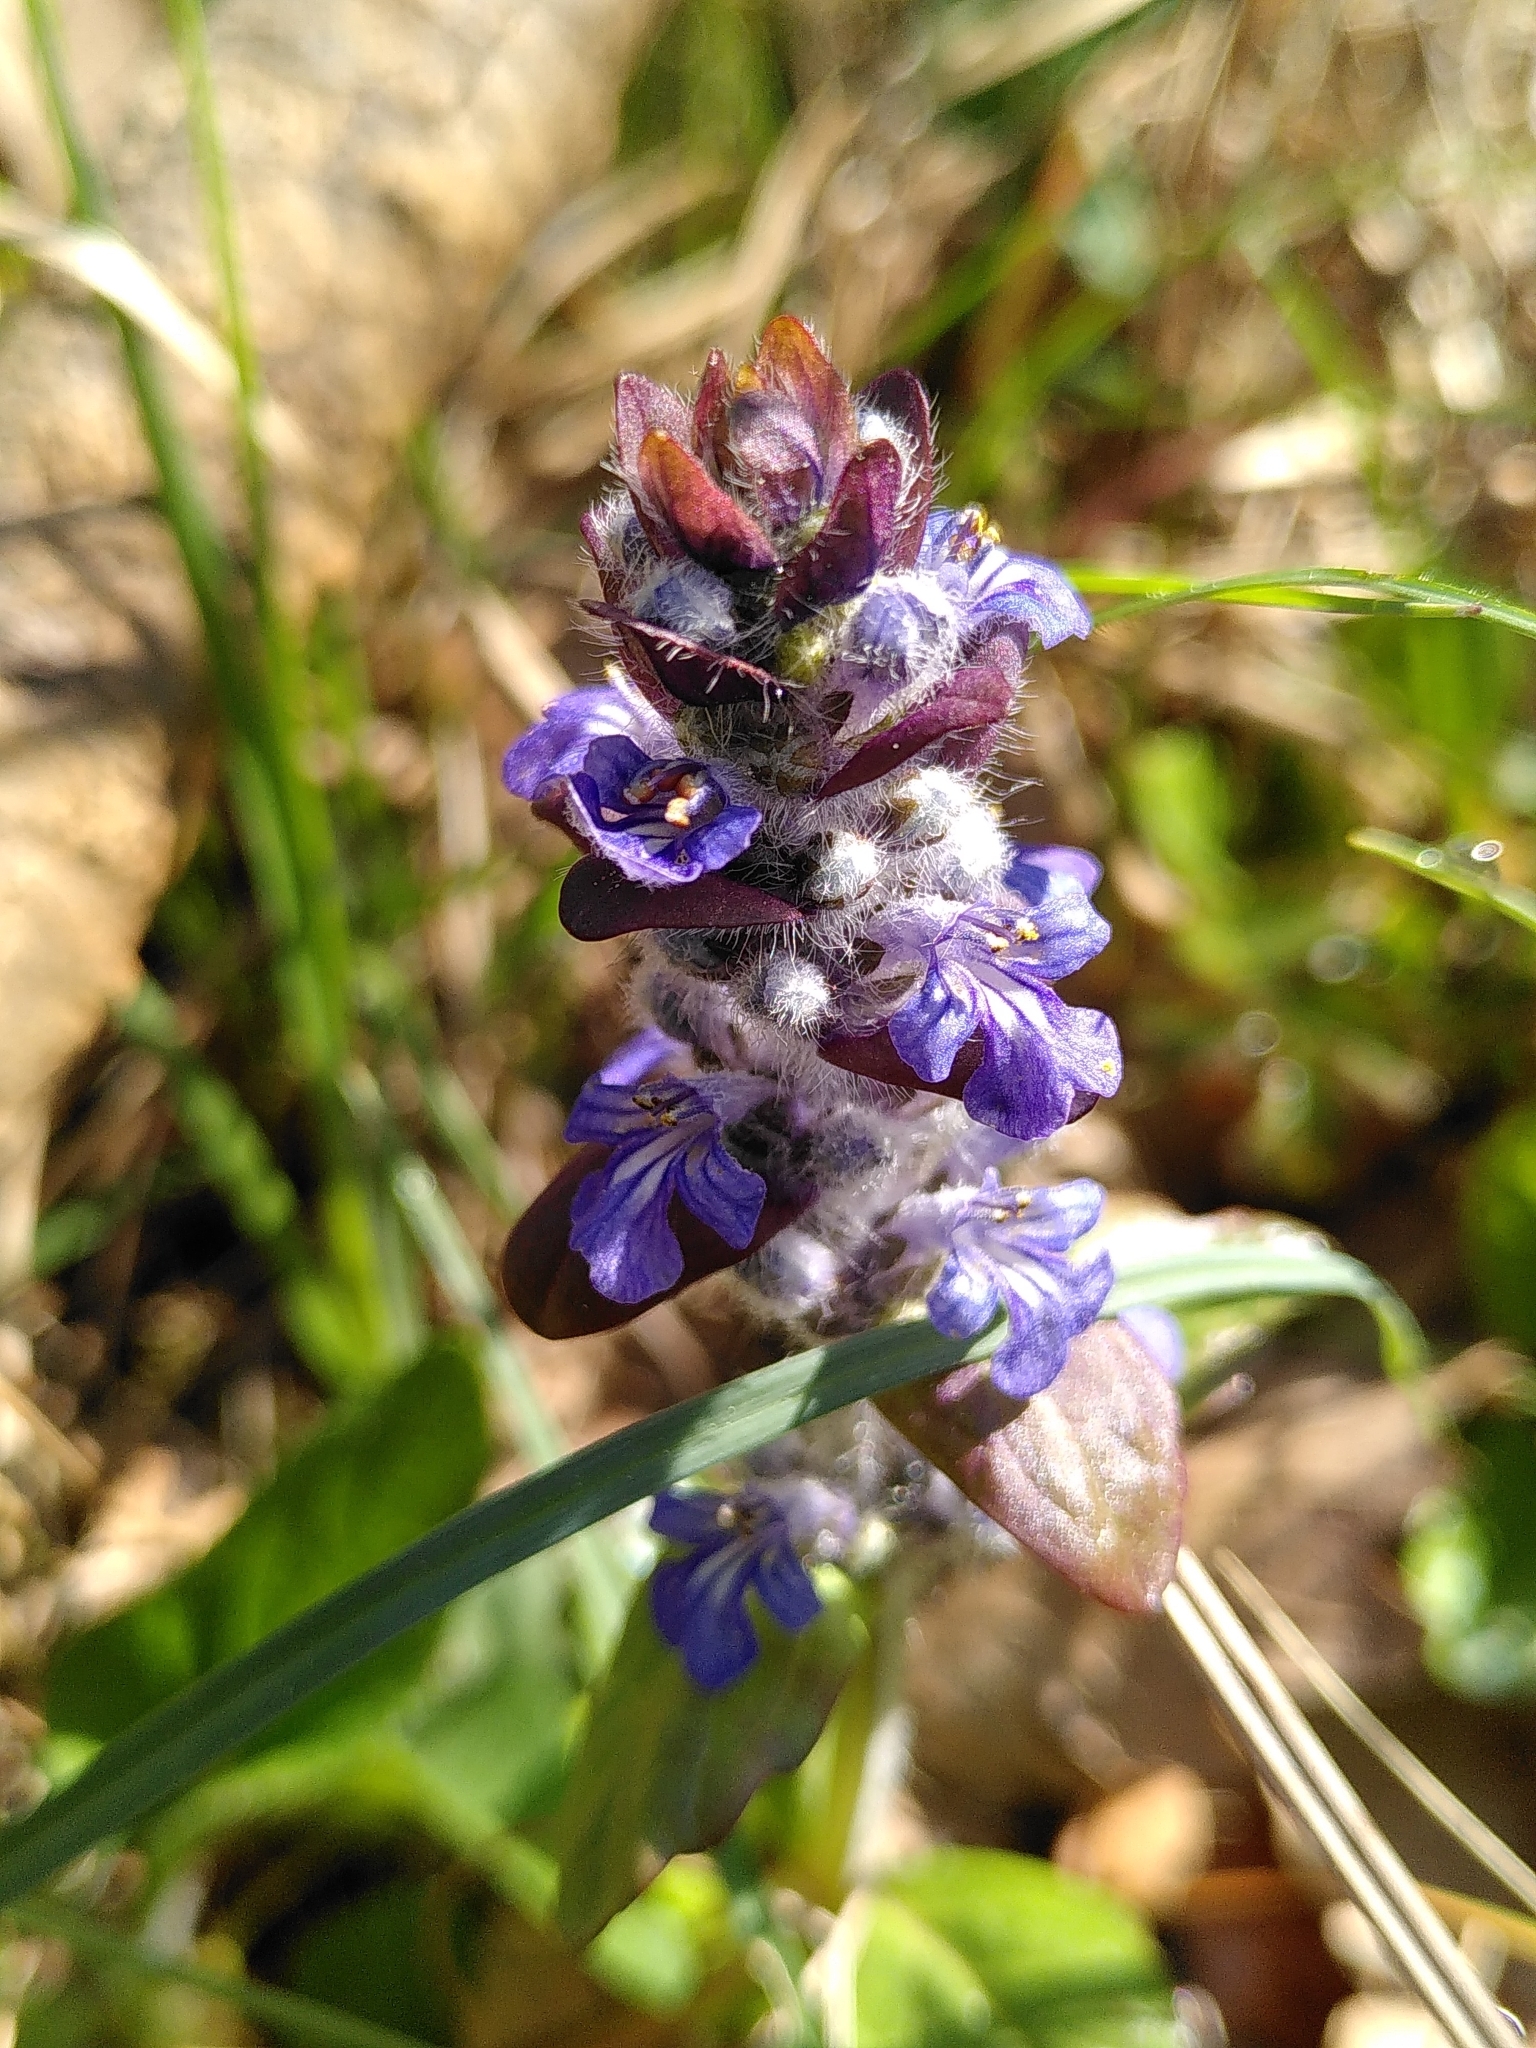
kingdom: Plantae
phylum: Tracheophyta
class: Magnoliopsida
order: Lamiales
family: Lamiaceae
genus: Ajuga
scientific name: Ajuga reptans
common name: Bugle
